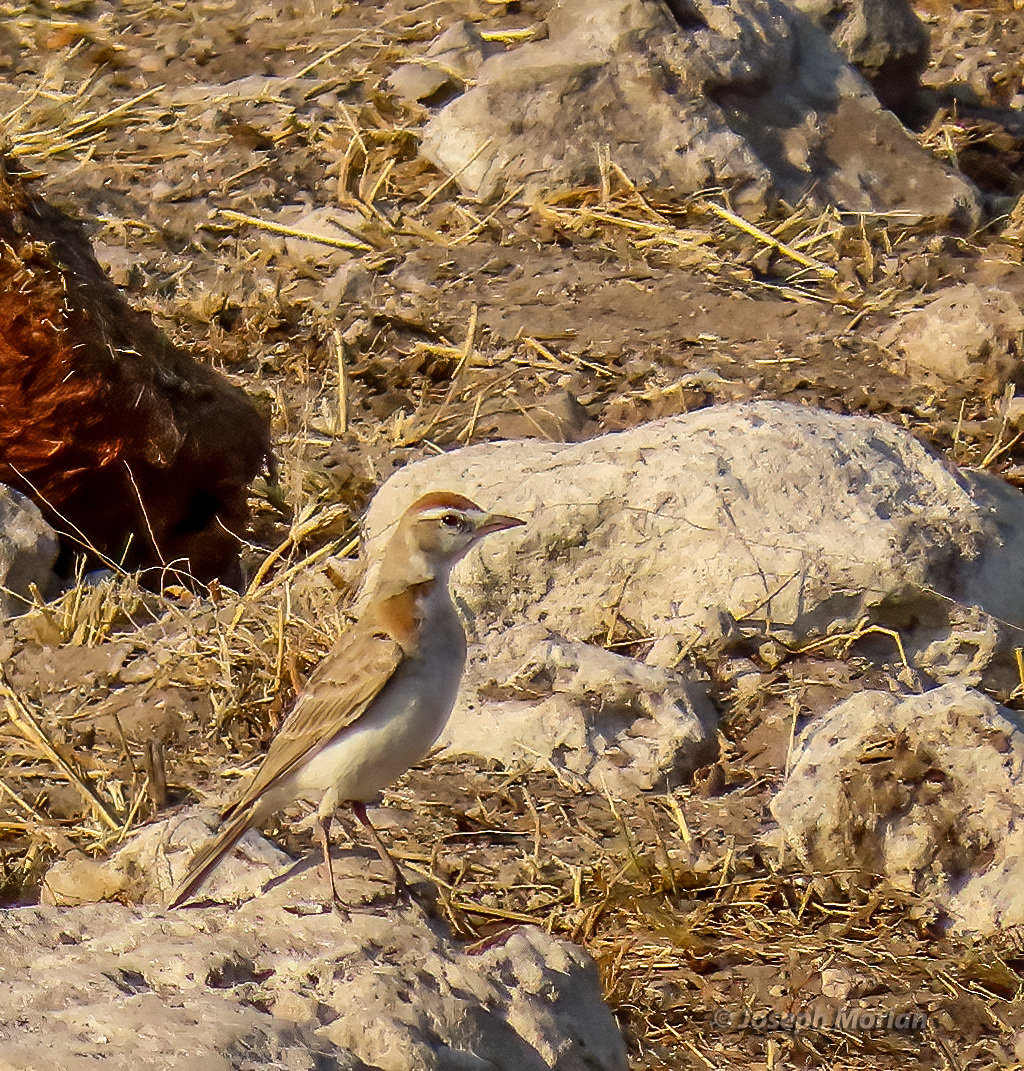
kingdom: Animalia
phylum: Chordata
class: Aves
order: Passeriformes
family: Alaudidae
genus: Calandrella
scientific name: Calandrella cinerea
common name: Red-capped lark
